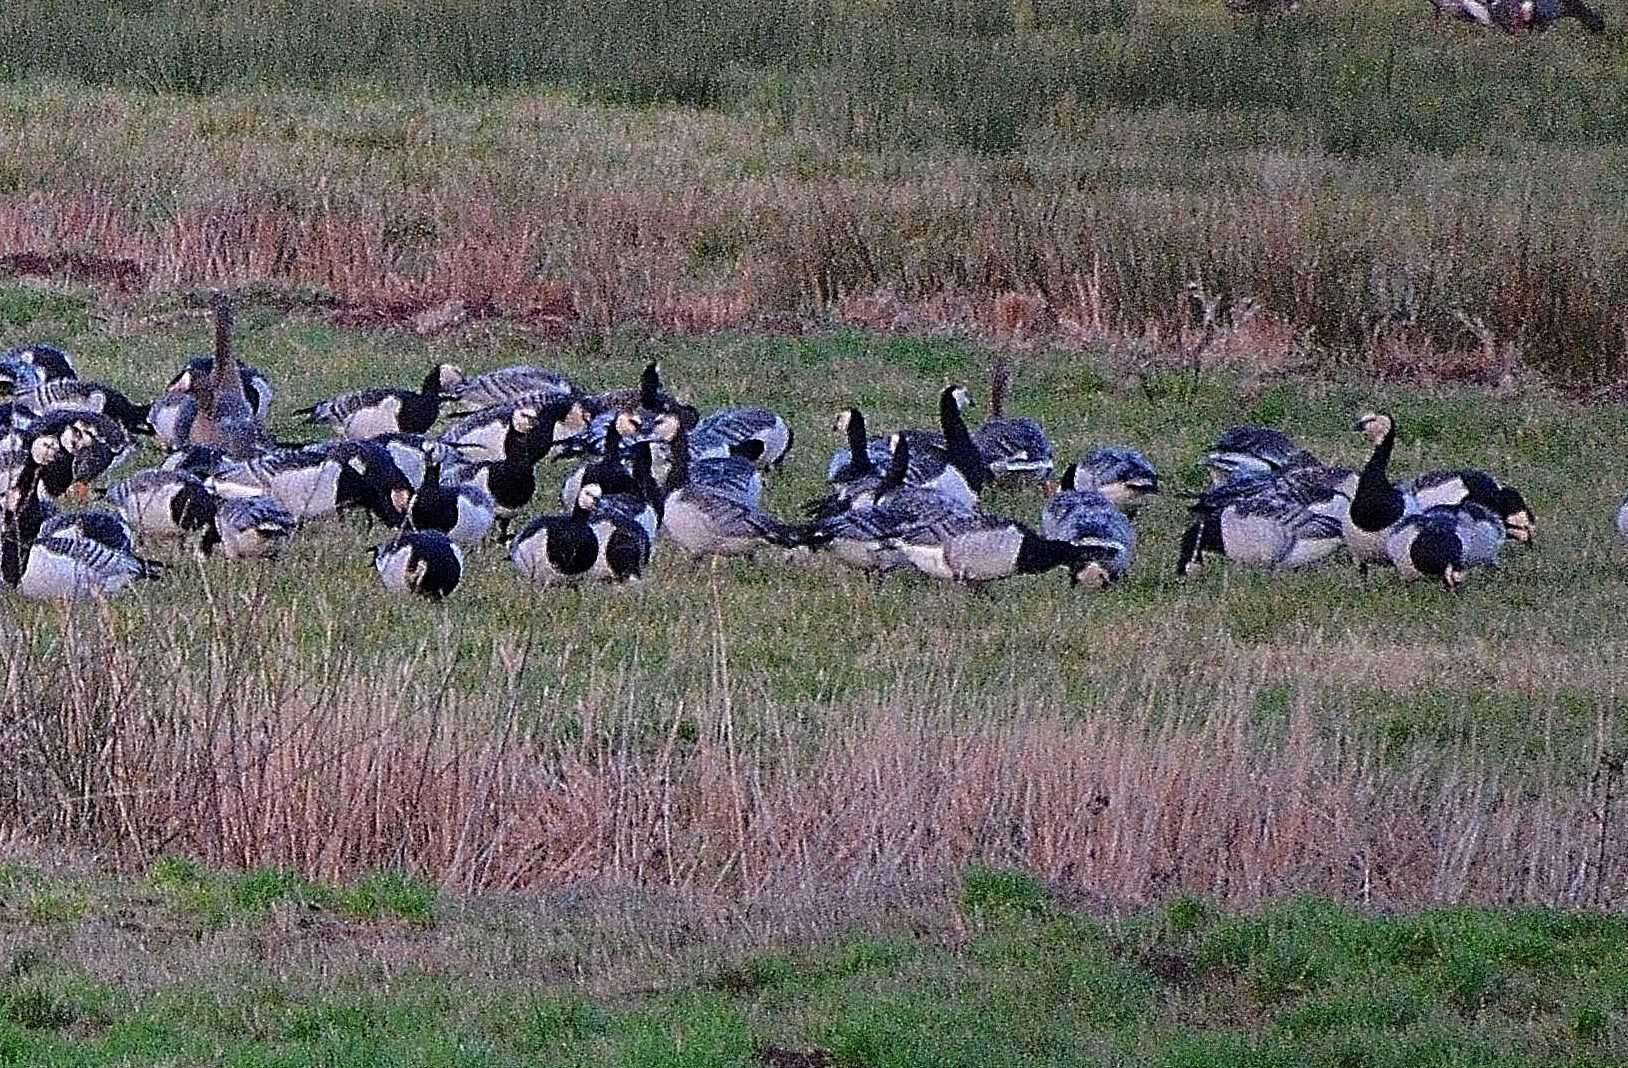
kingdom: Animalia
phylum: Chordata
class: Aves
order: Anseriformes
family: Anatidae
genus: Branta
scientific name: Branta leucopsis
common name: Barnacle goose
